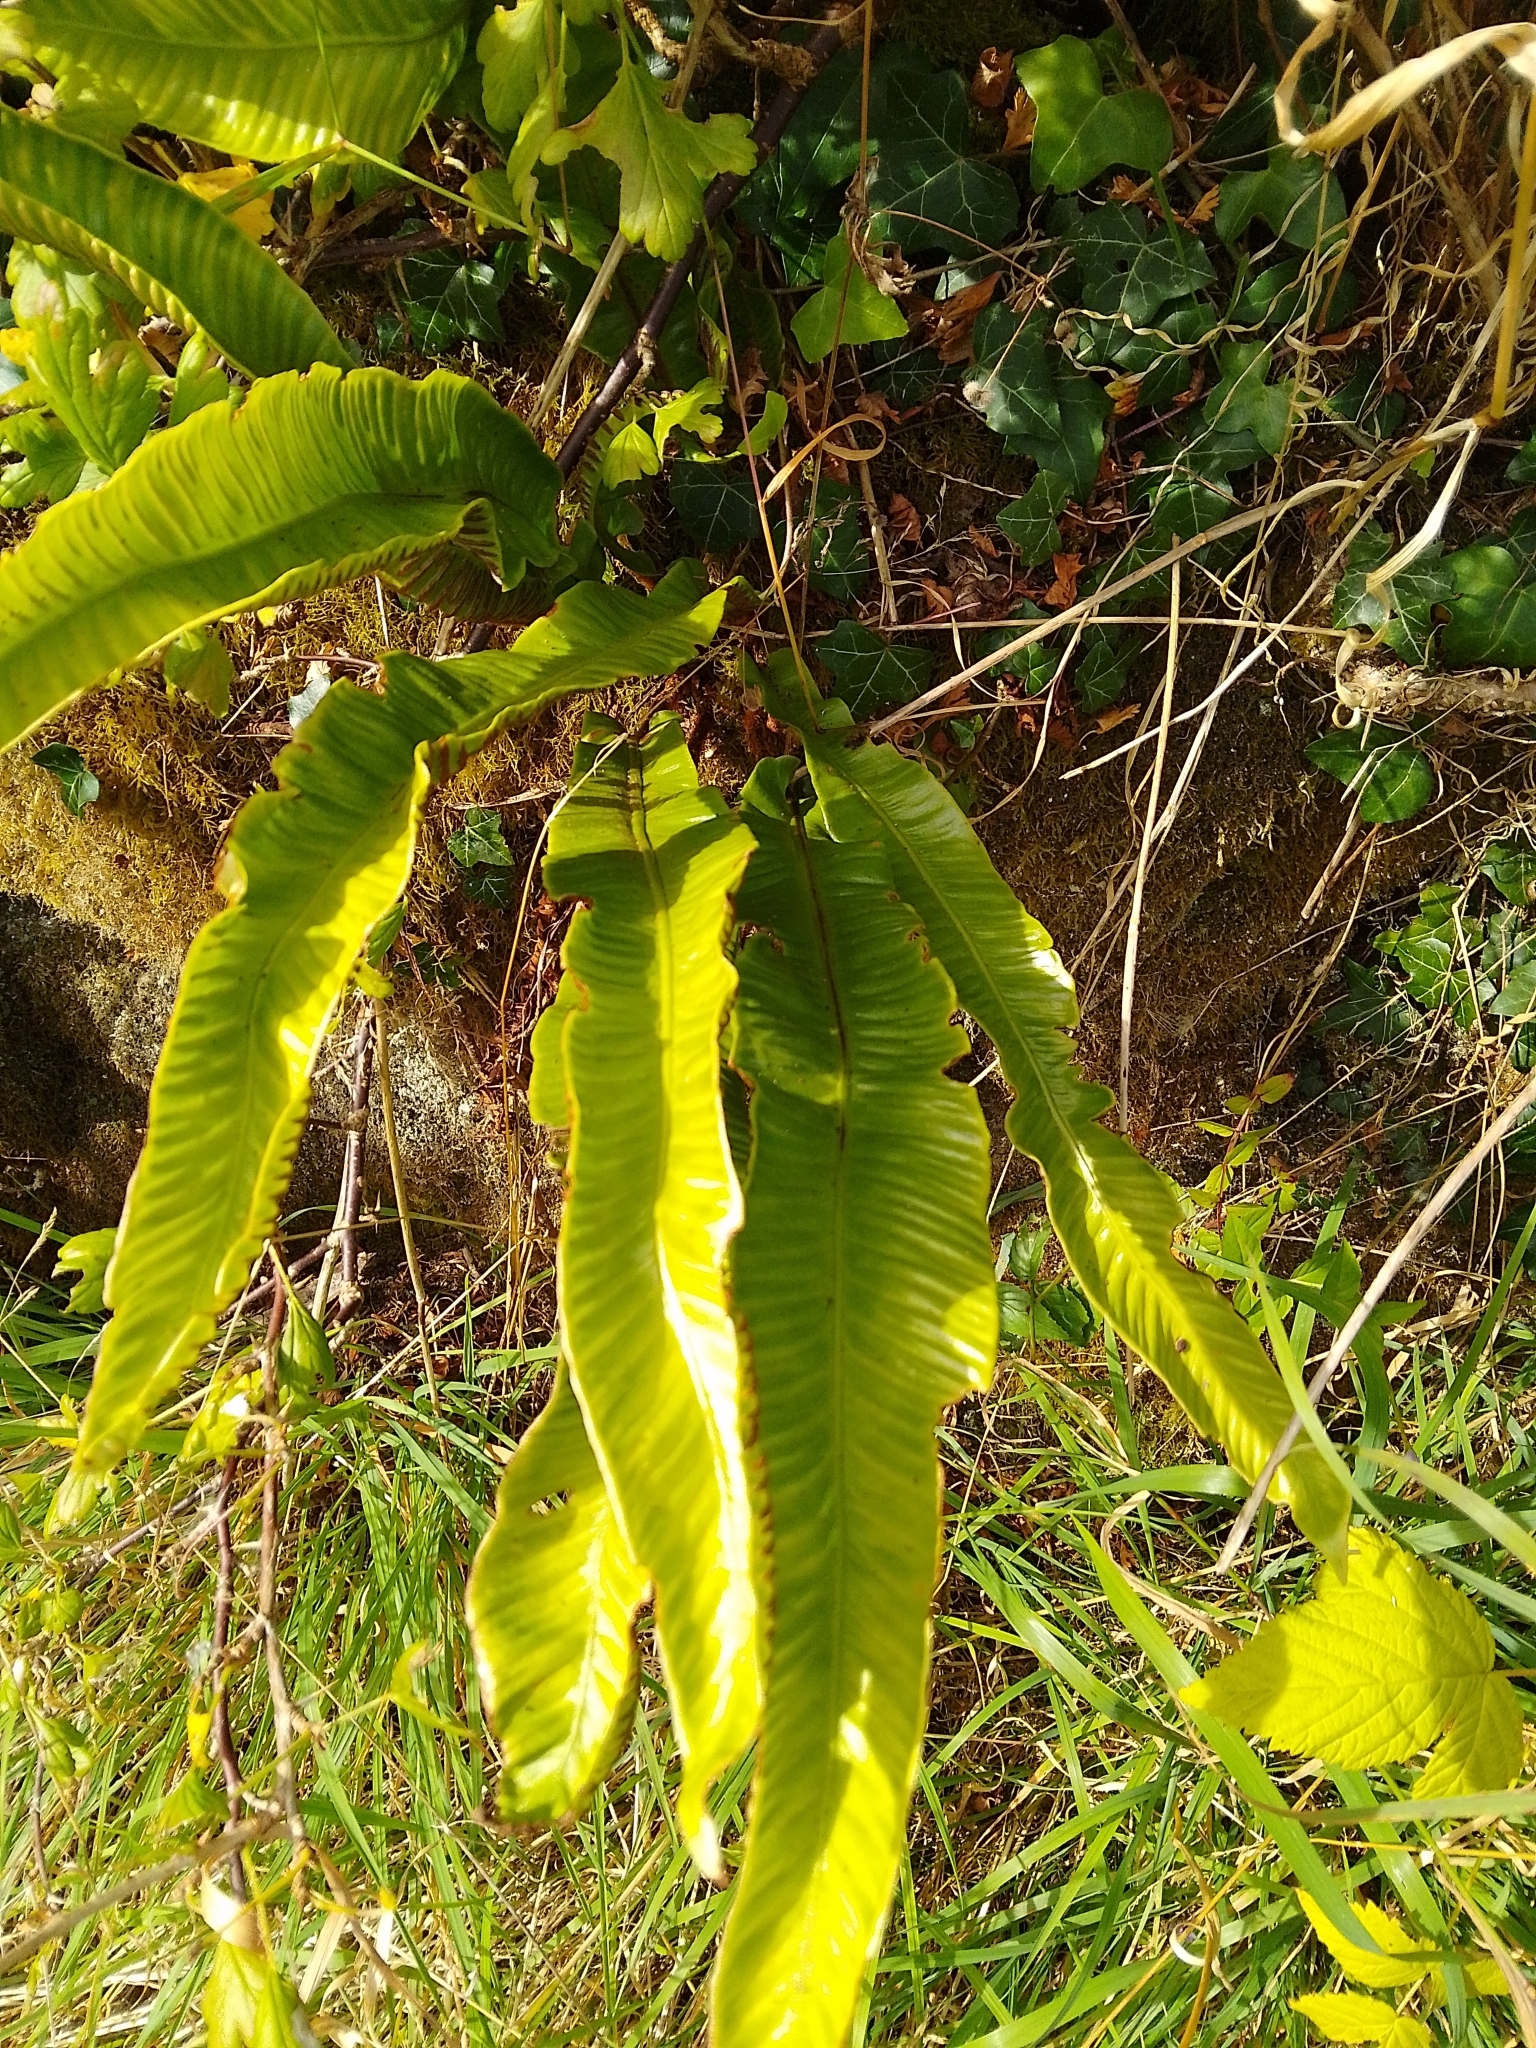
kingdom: Plantae
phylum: Tracheophyta
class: Polypodiopsida
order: Polypodiales
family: Aspleniaceae
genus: Asplenium
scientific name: Asplenium scolopendrium
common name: Hart's-tongue fern
